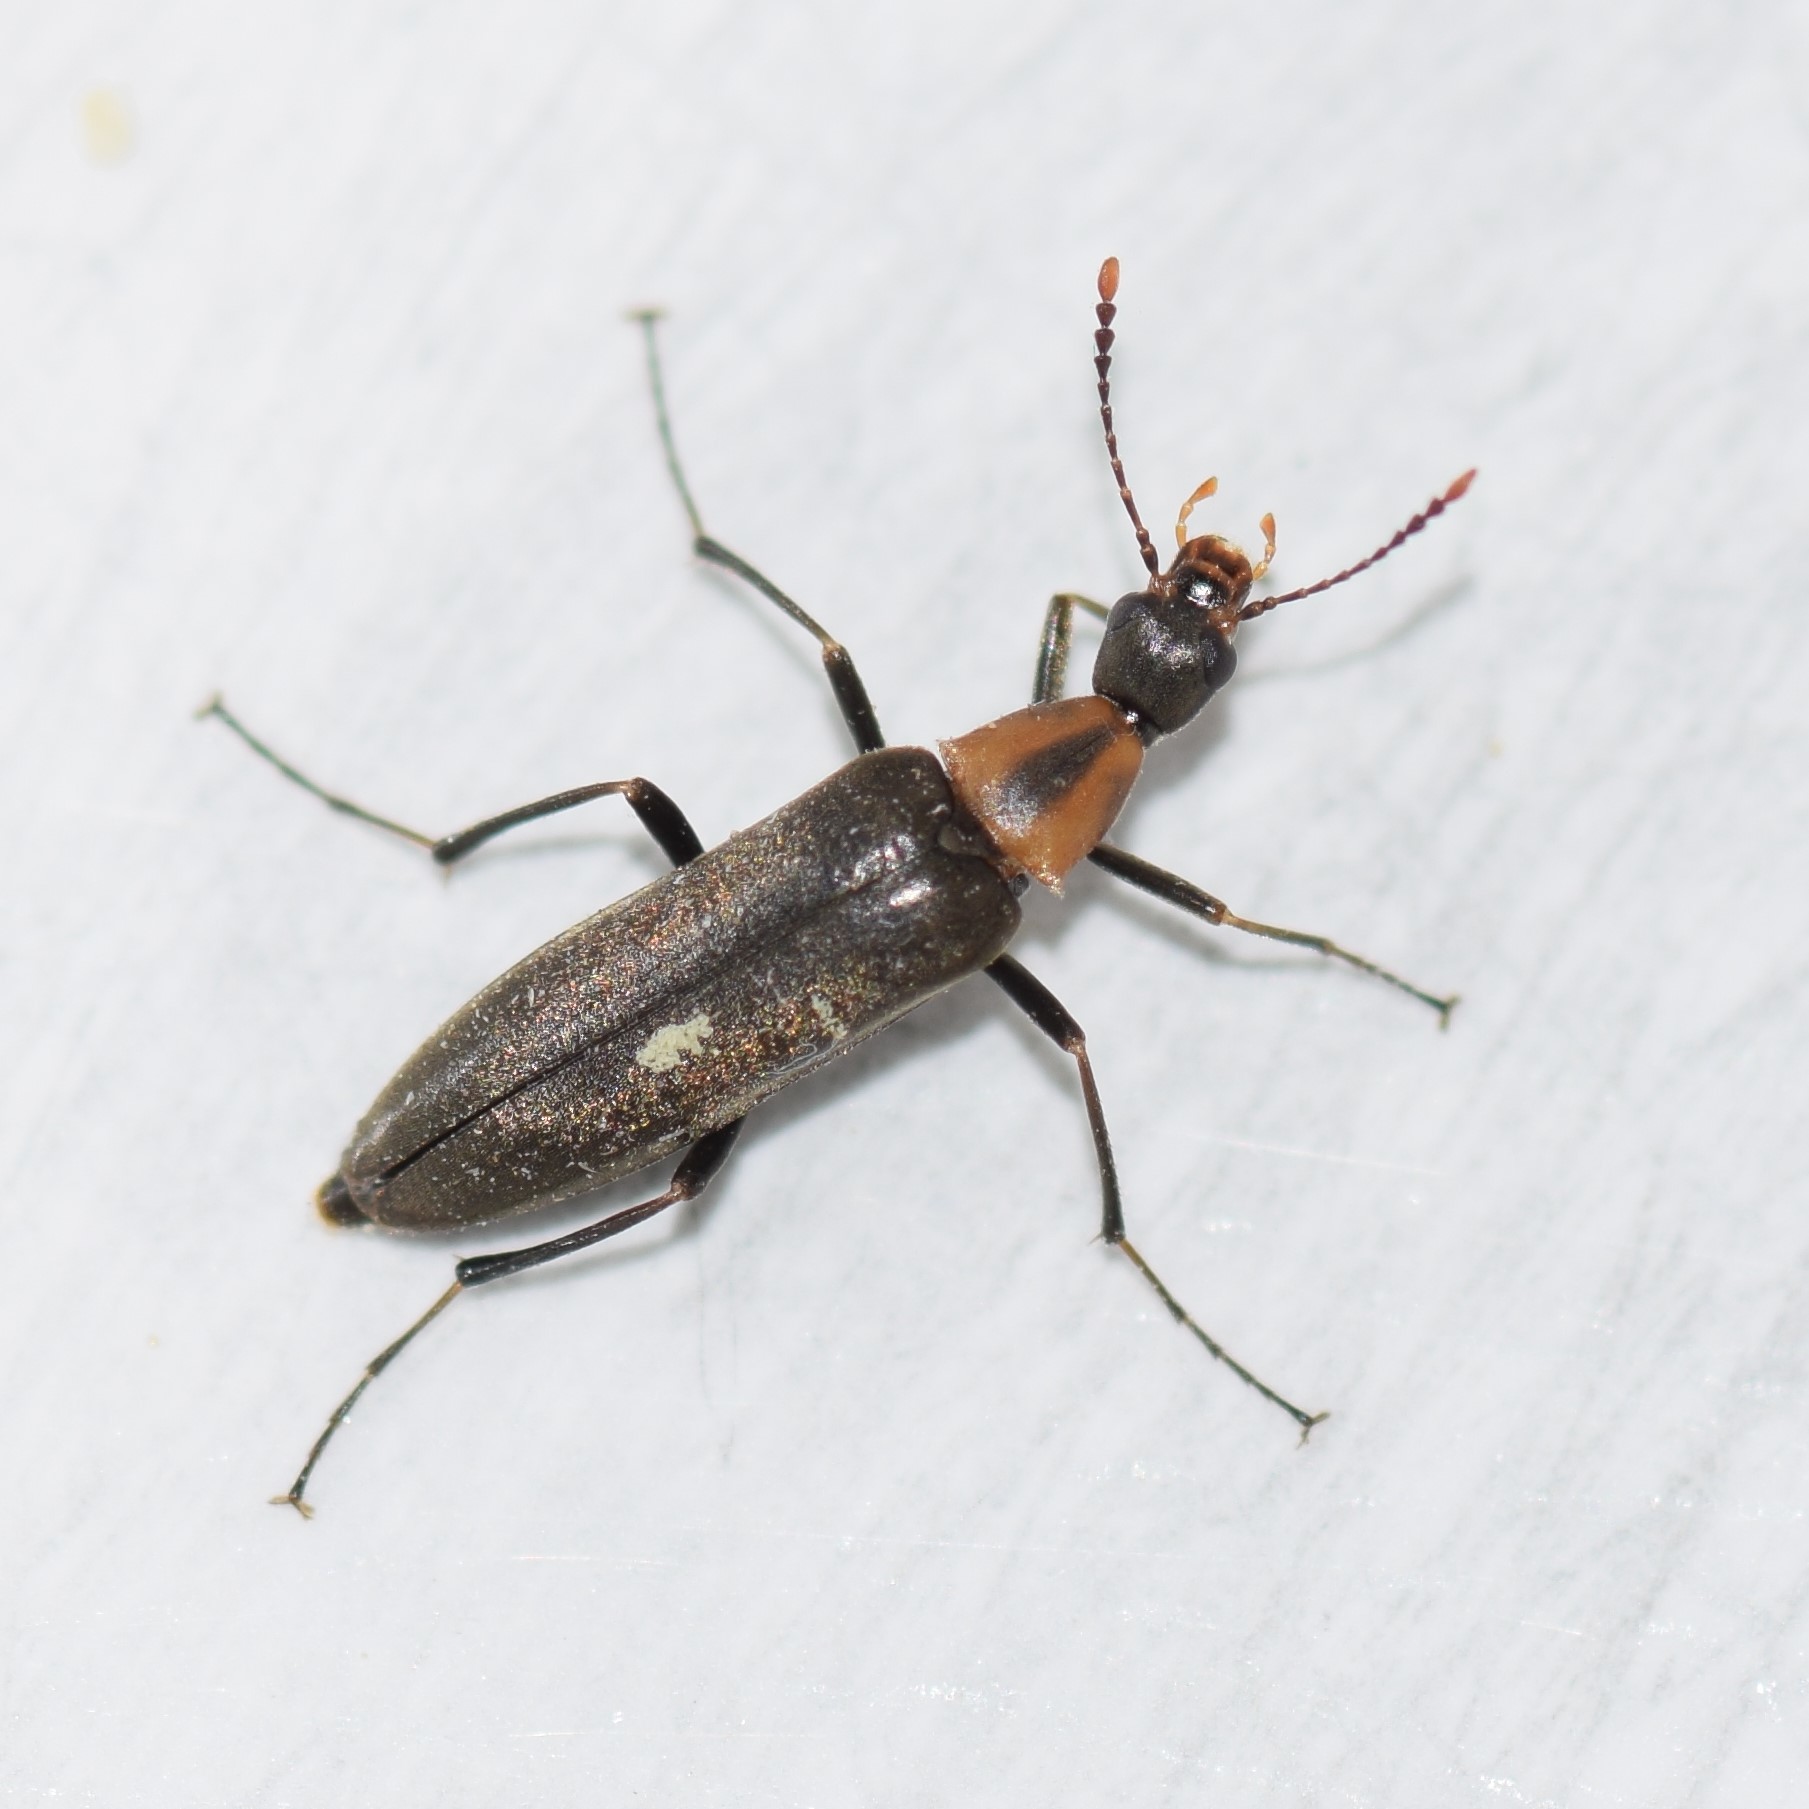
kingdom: Animalia
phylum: Arthropoda
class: Insecta
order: Coleoptera
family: Stenotrachelidae
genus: Cephaloon
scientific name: Cephaloon lepturides
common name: False leptura beetle
